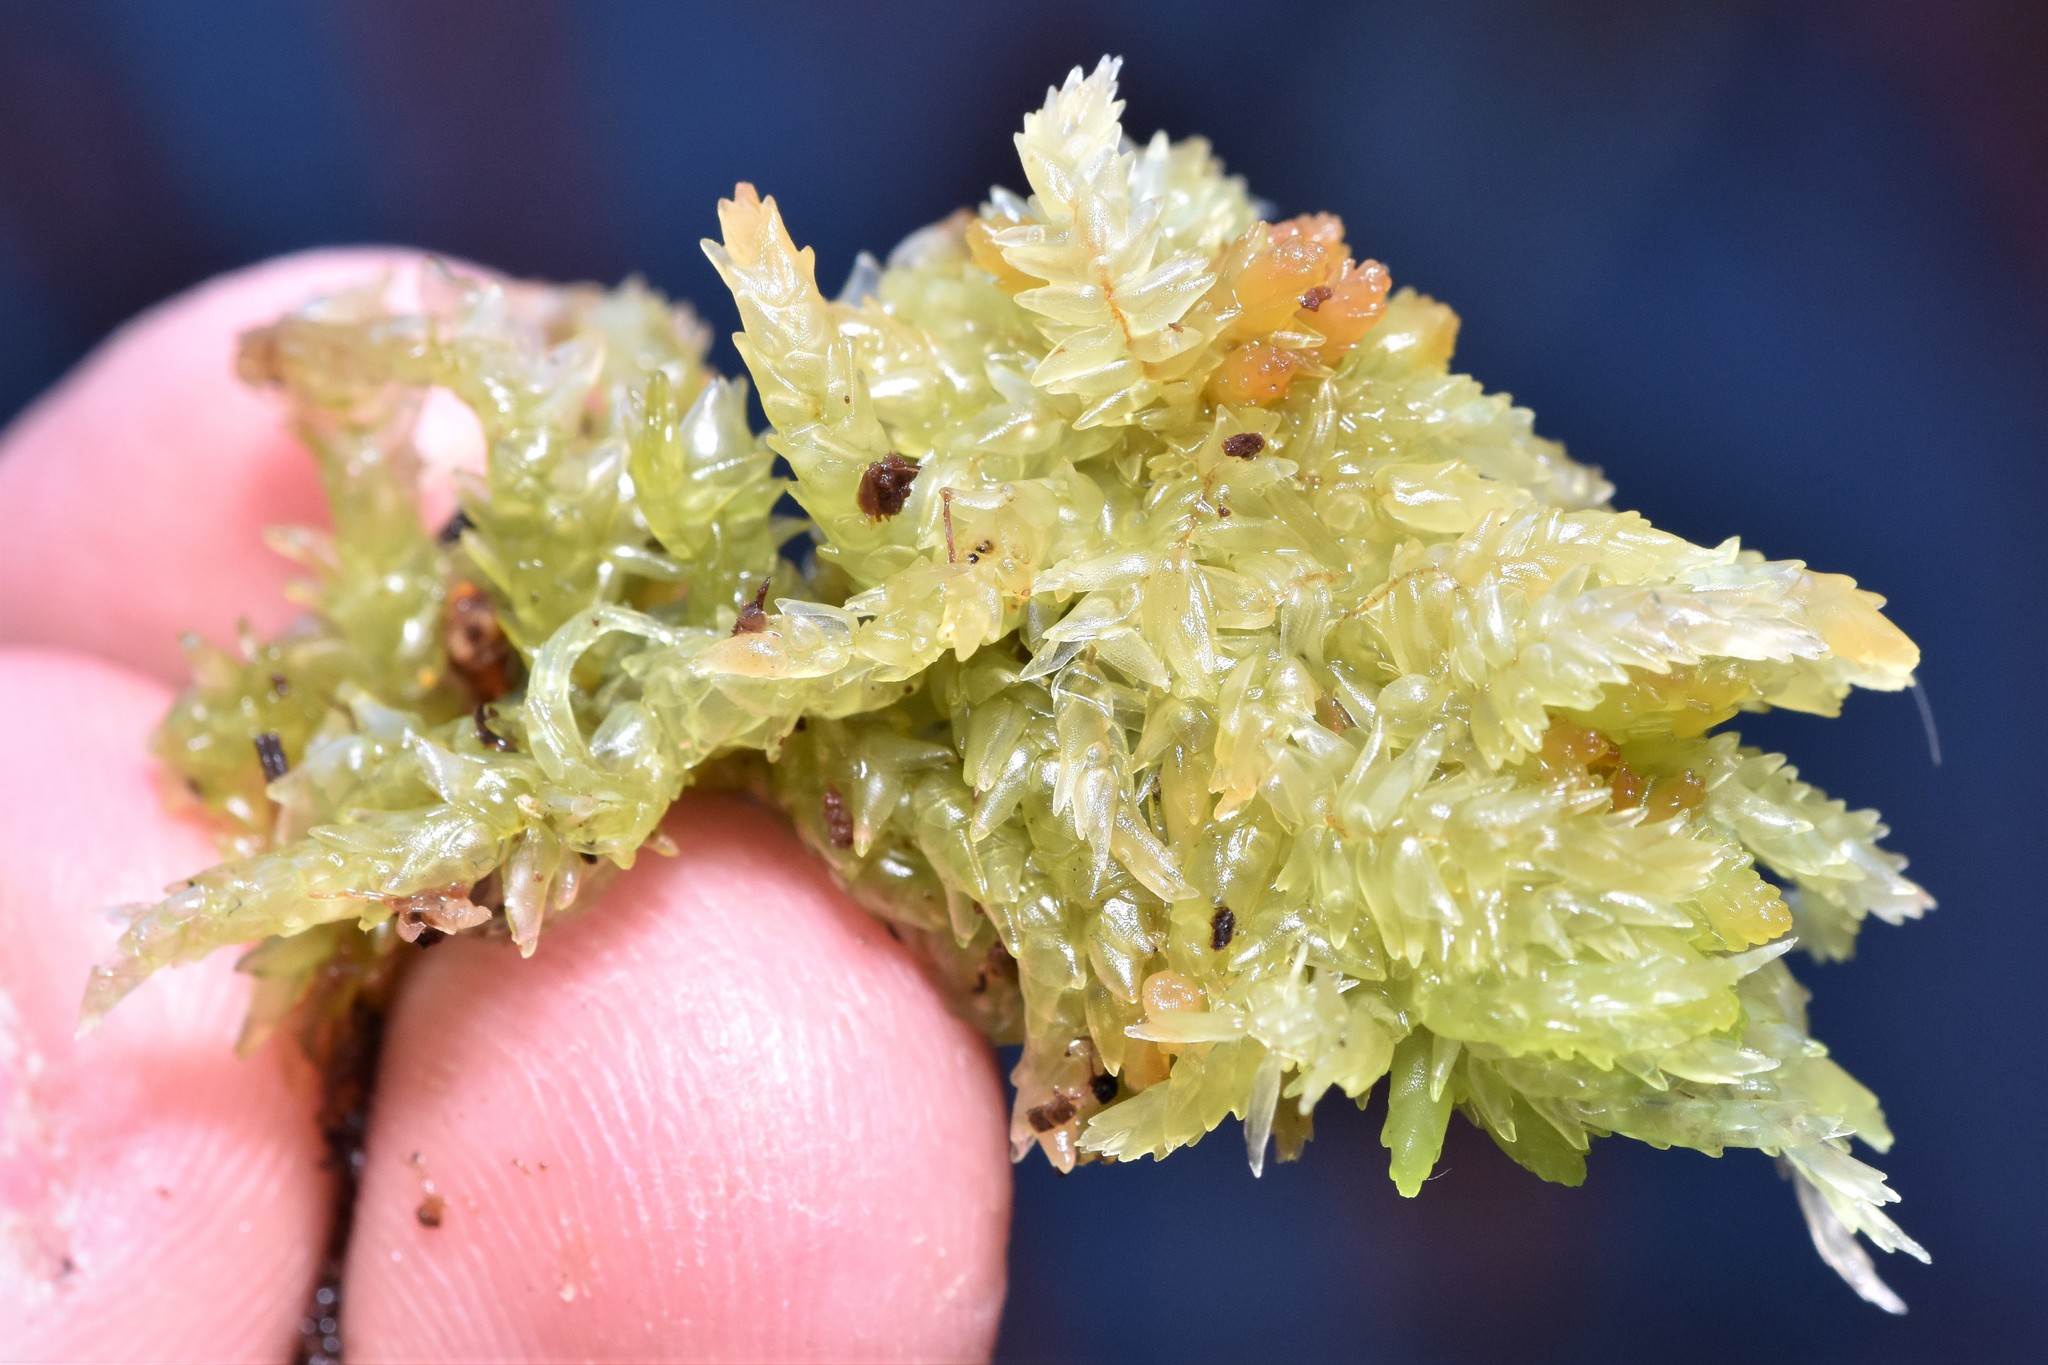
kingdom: Plantae
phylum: Bryophyta
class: Sphagnopsida
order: Sphagnales
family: Sphagnaceae
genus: Sphagnum
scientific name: Sphagnum palustre
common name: Blunt-leaved bog-moss
